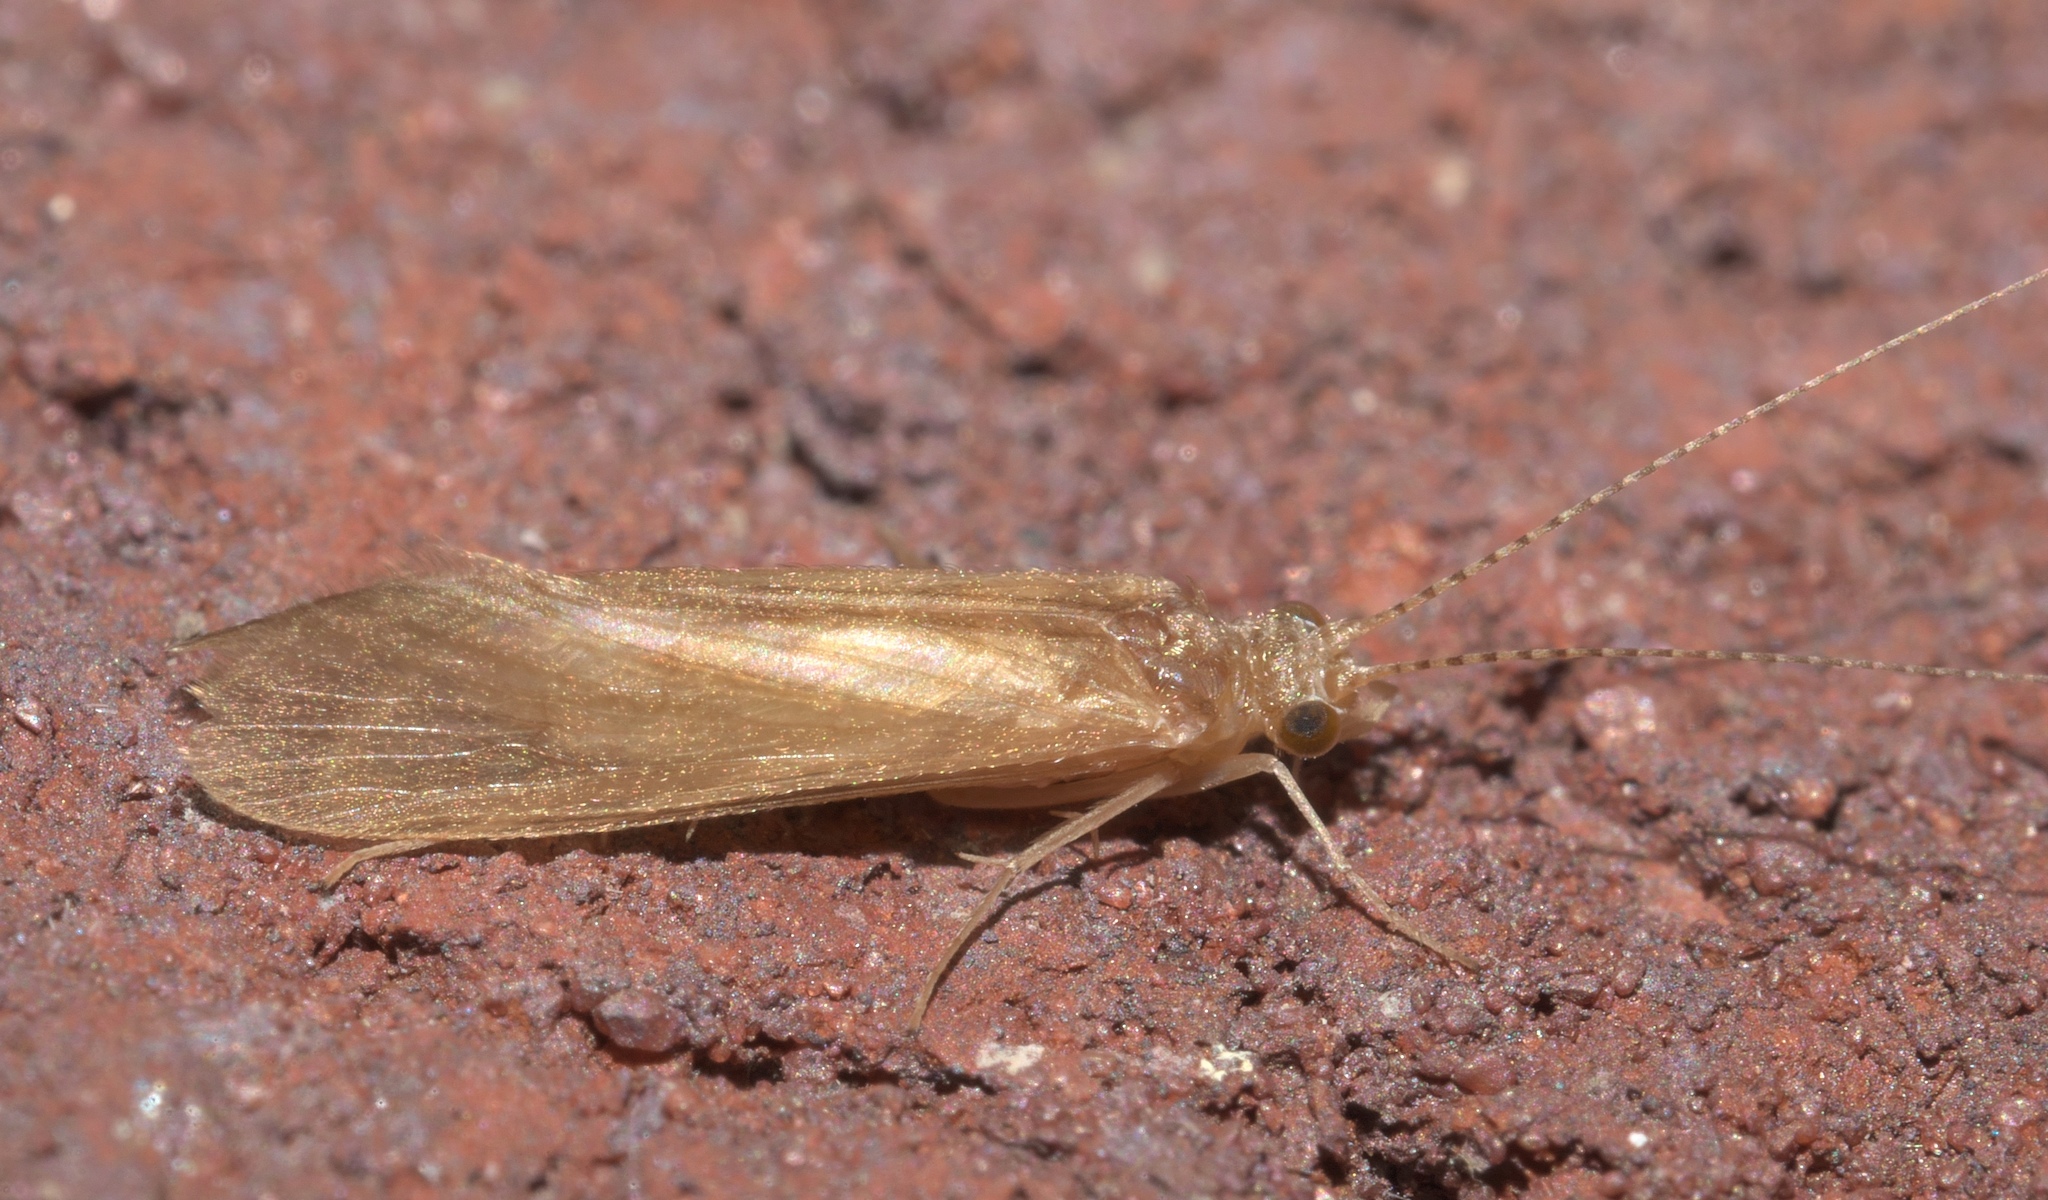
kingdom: Animalia
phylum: Arthropoda
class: Insecta
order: Trichoptera
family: Hydropsychidae
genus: Potamyia
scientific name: Potamyia flava
